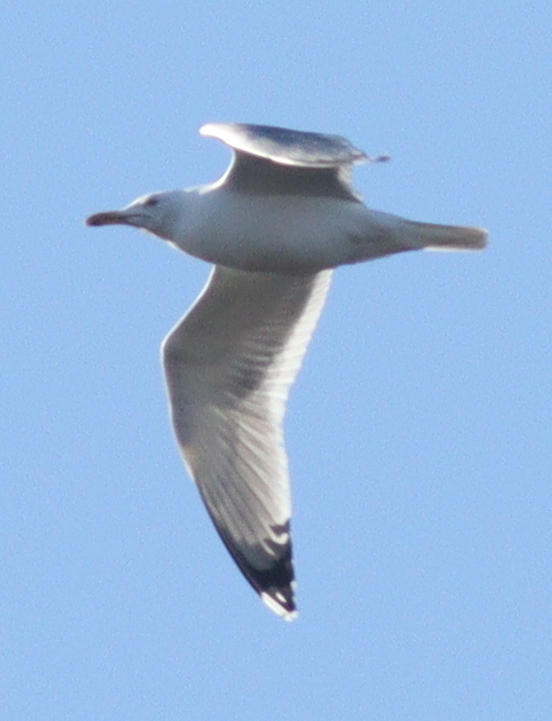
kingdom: Animalia
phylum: Chordata
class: Aves
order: Charadriiformes
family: Laridae
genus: Larus
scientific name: Larus cachinnans
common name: Caspian gull
